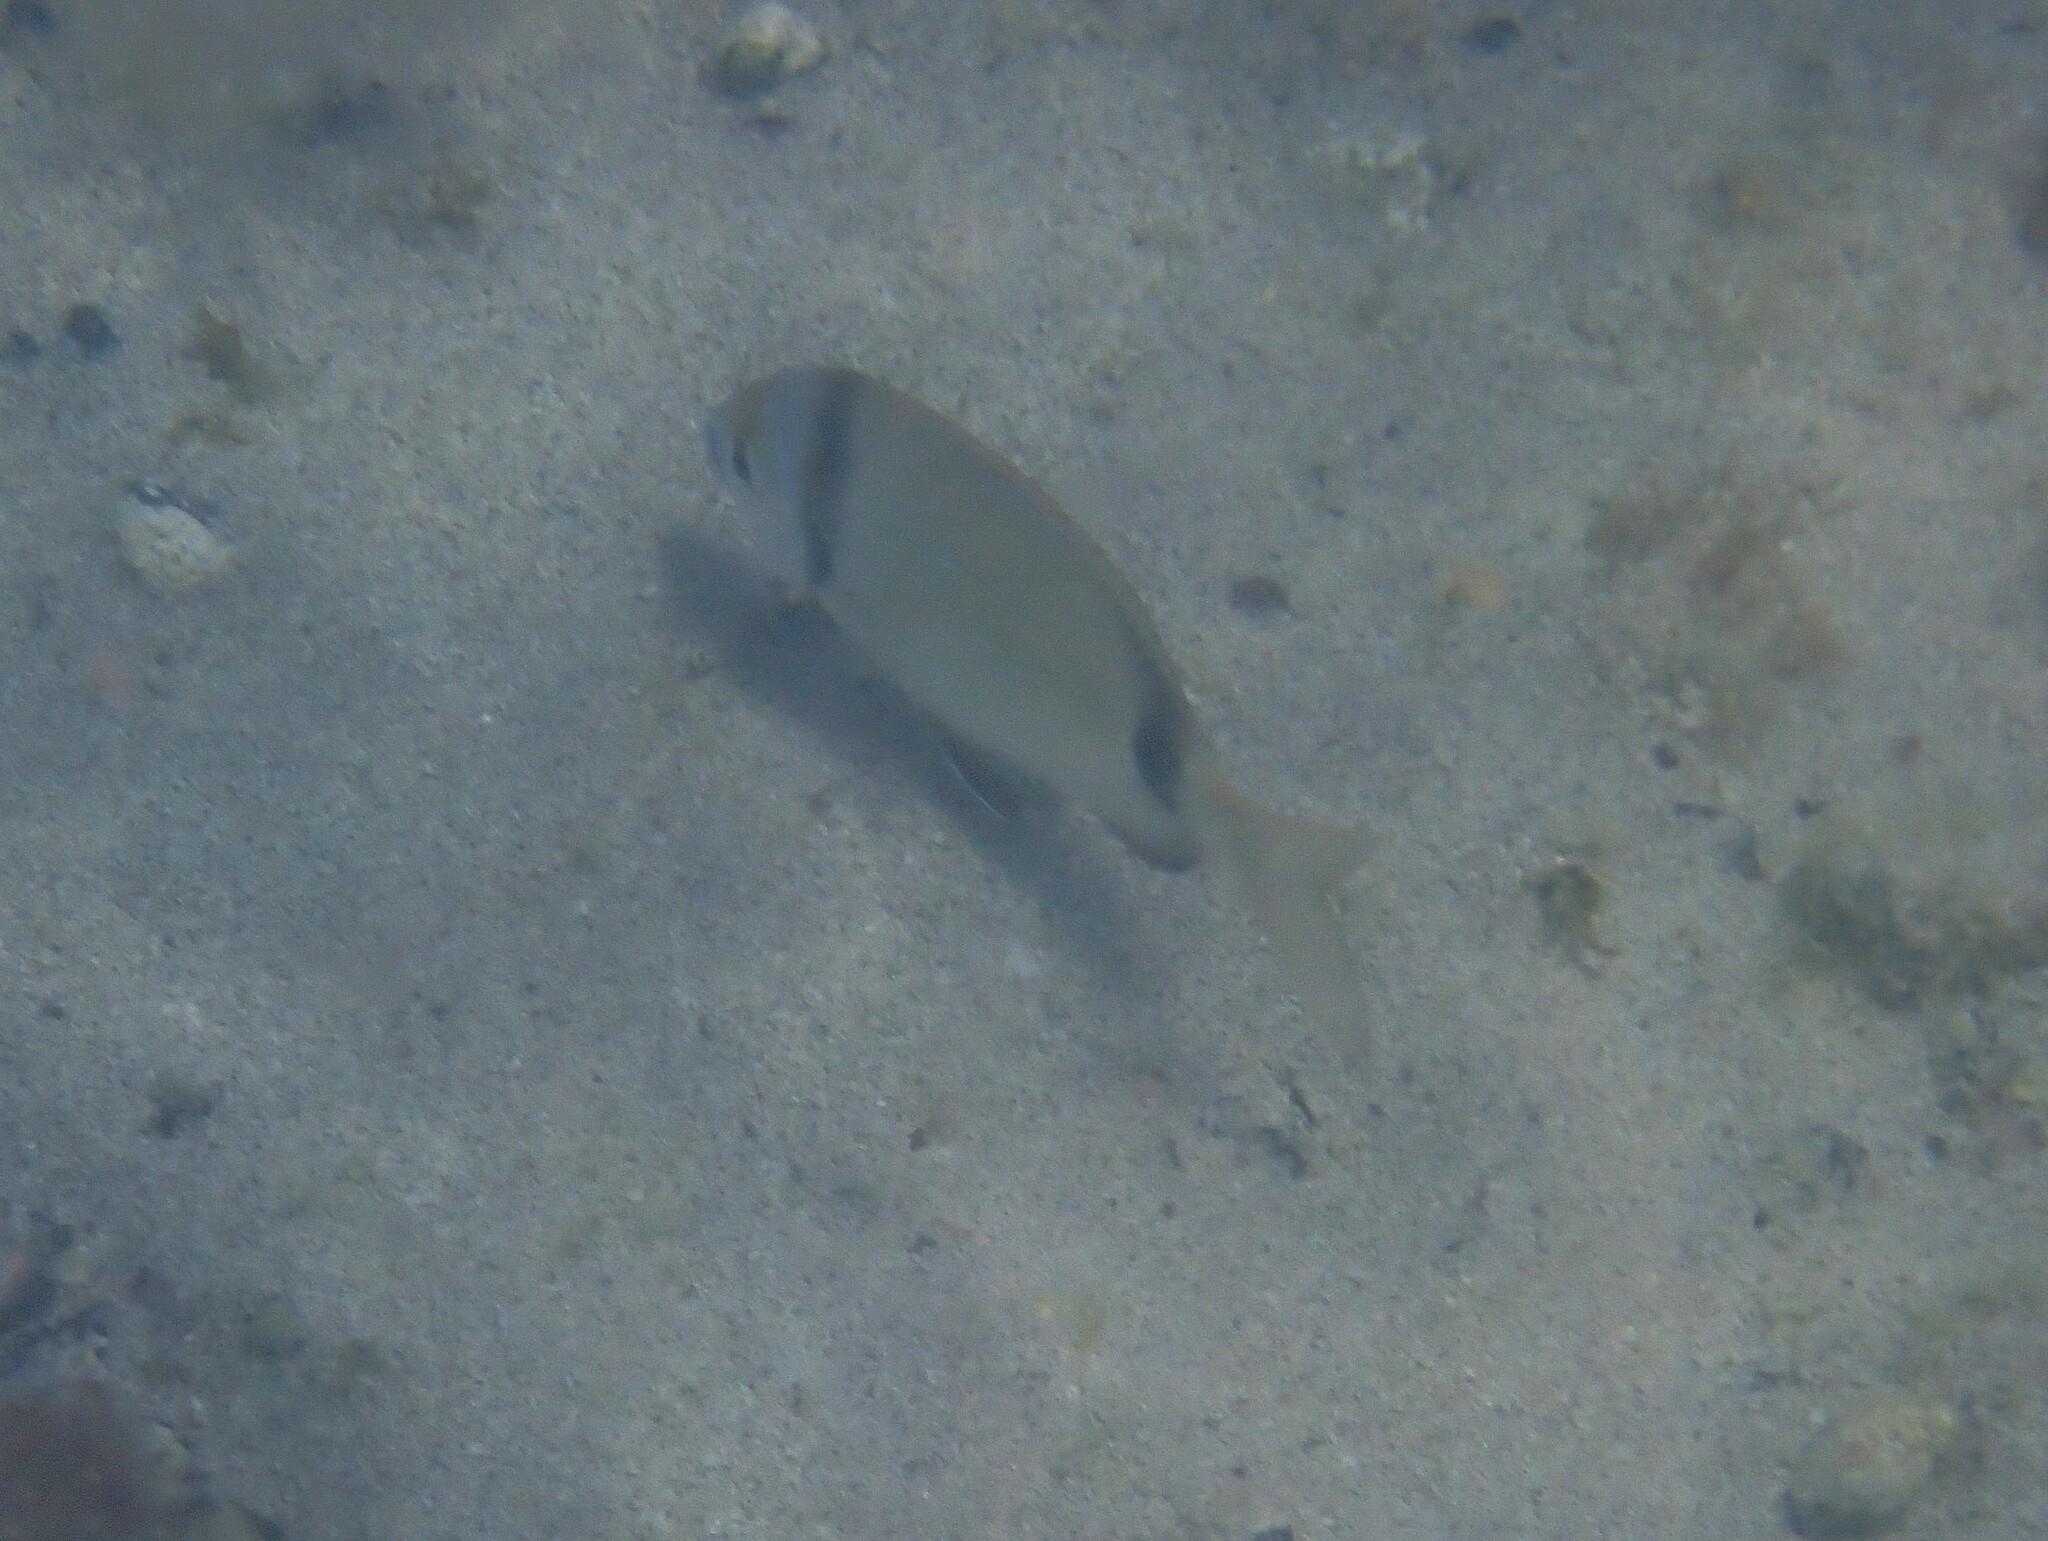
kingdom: Animalia
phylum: Chordata
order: Perciformes
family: Sparidae
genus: Diplodus
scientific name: Diplodus vulgaris
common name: Common two-banded seabream
